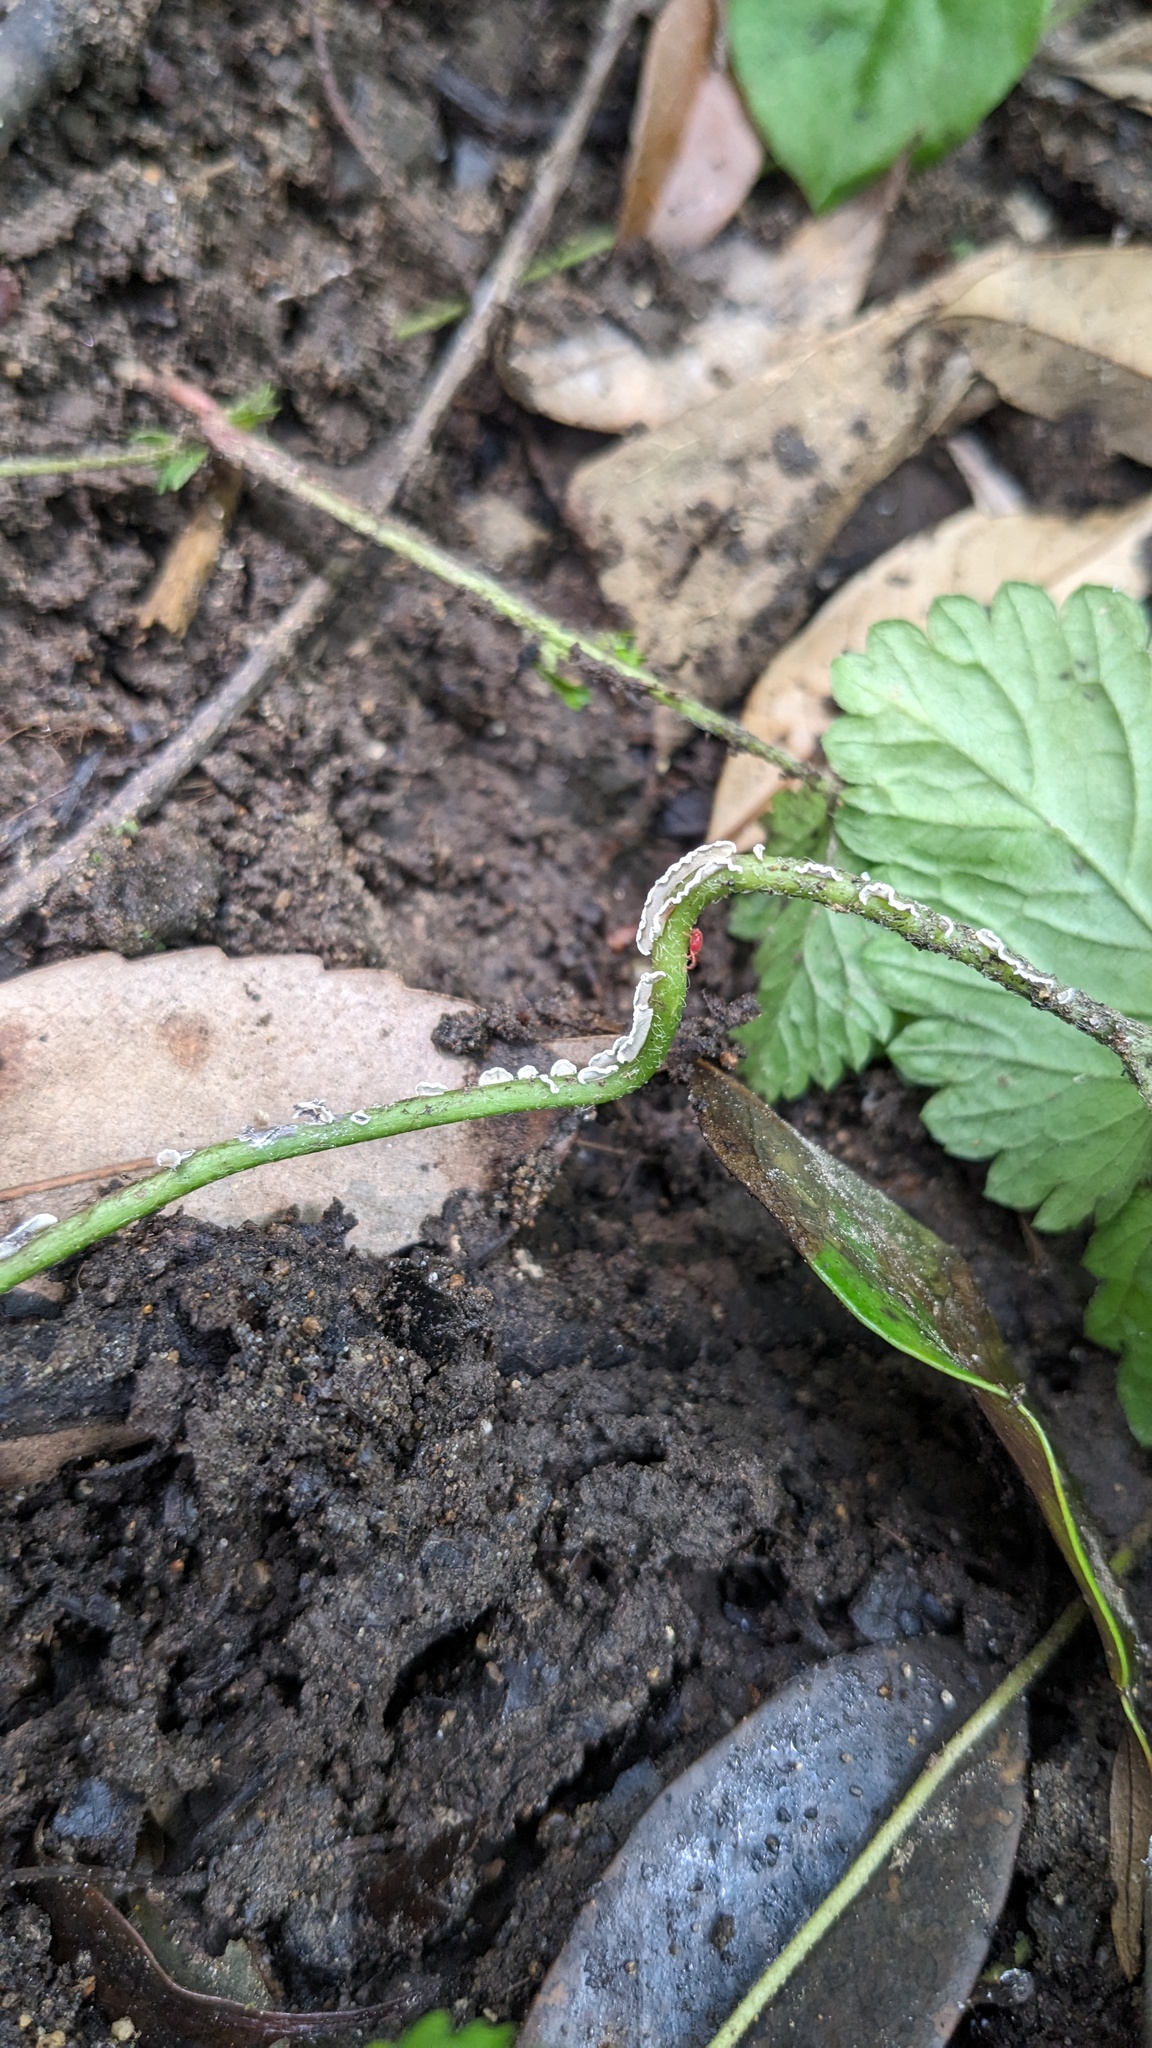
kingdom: Protozoa
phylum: Mycetozoa
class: Myxomycetes
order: Physarales
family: Physaraceae
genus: Physarum
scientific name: Physarum bivalve
